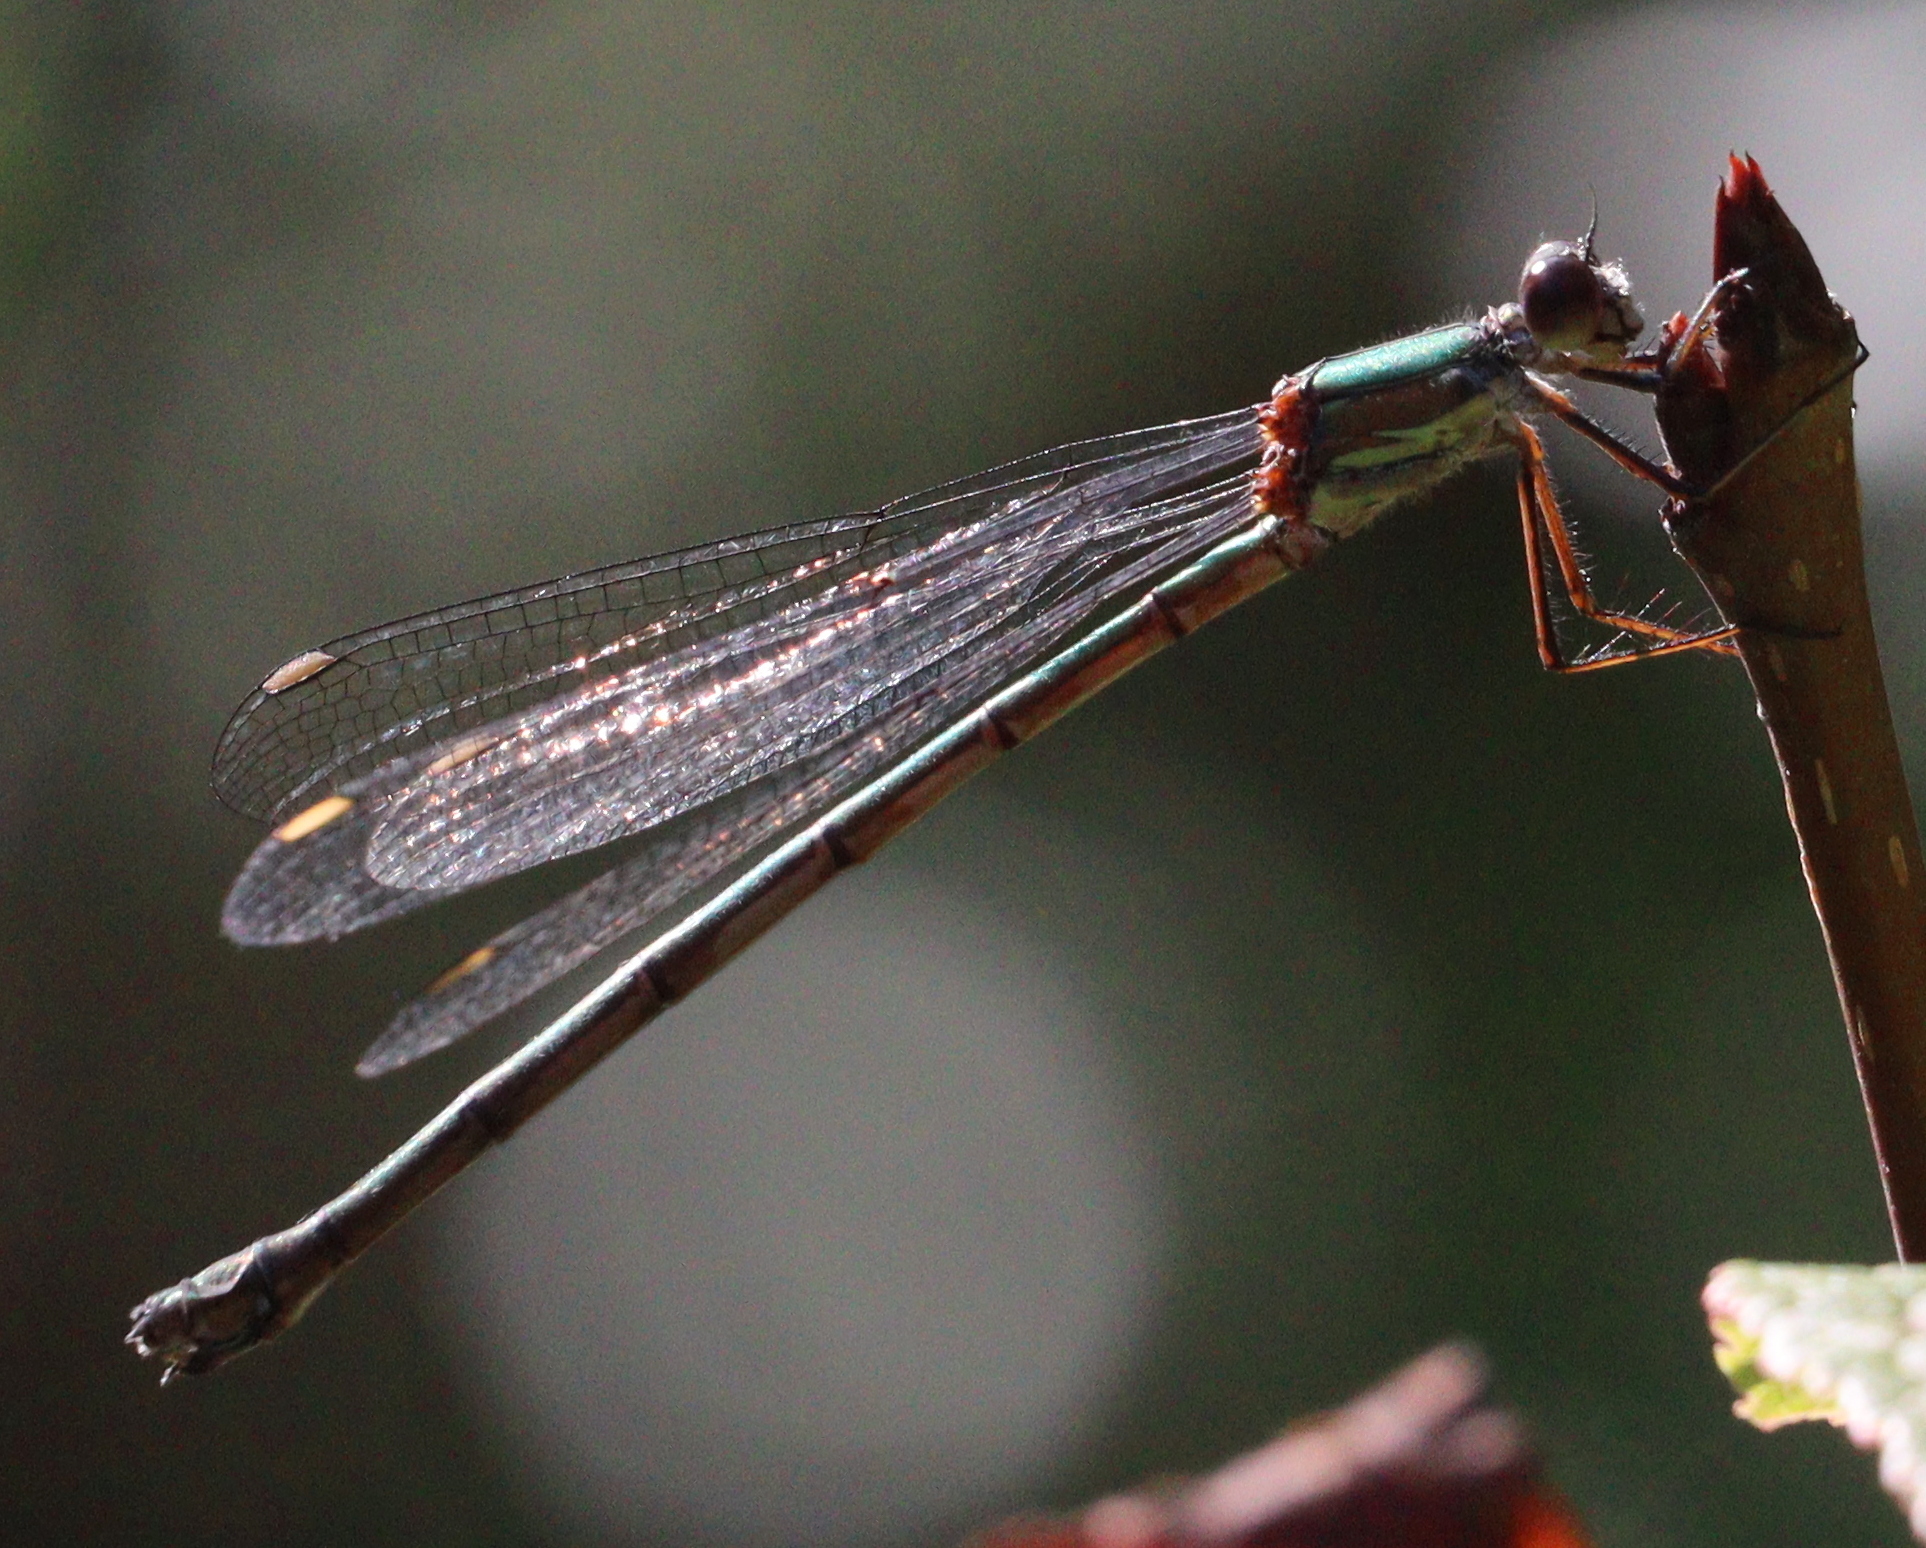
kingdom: Animalia
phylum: Arthropoda
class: Insecta
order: Odonata
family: Lestidae
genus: Chalcolestes
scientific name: Chalcolestes viridis
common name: Green emerald damselfly
